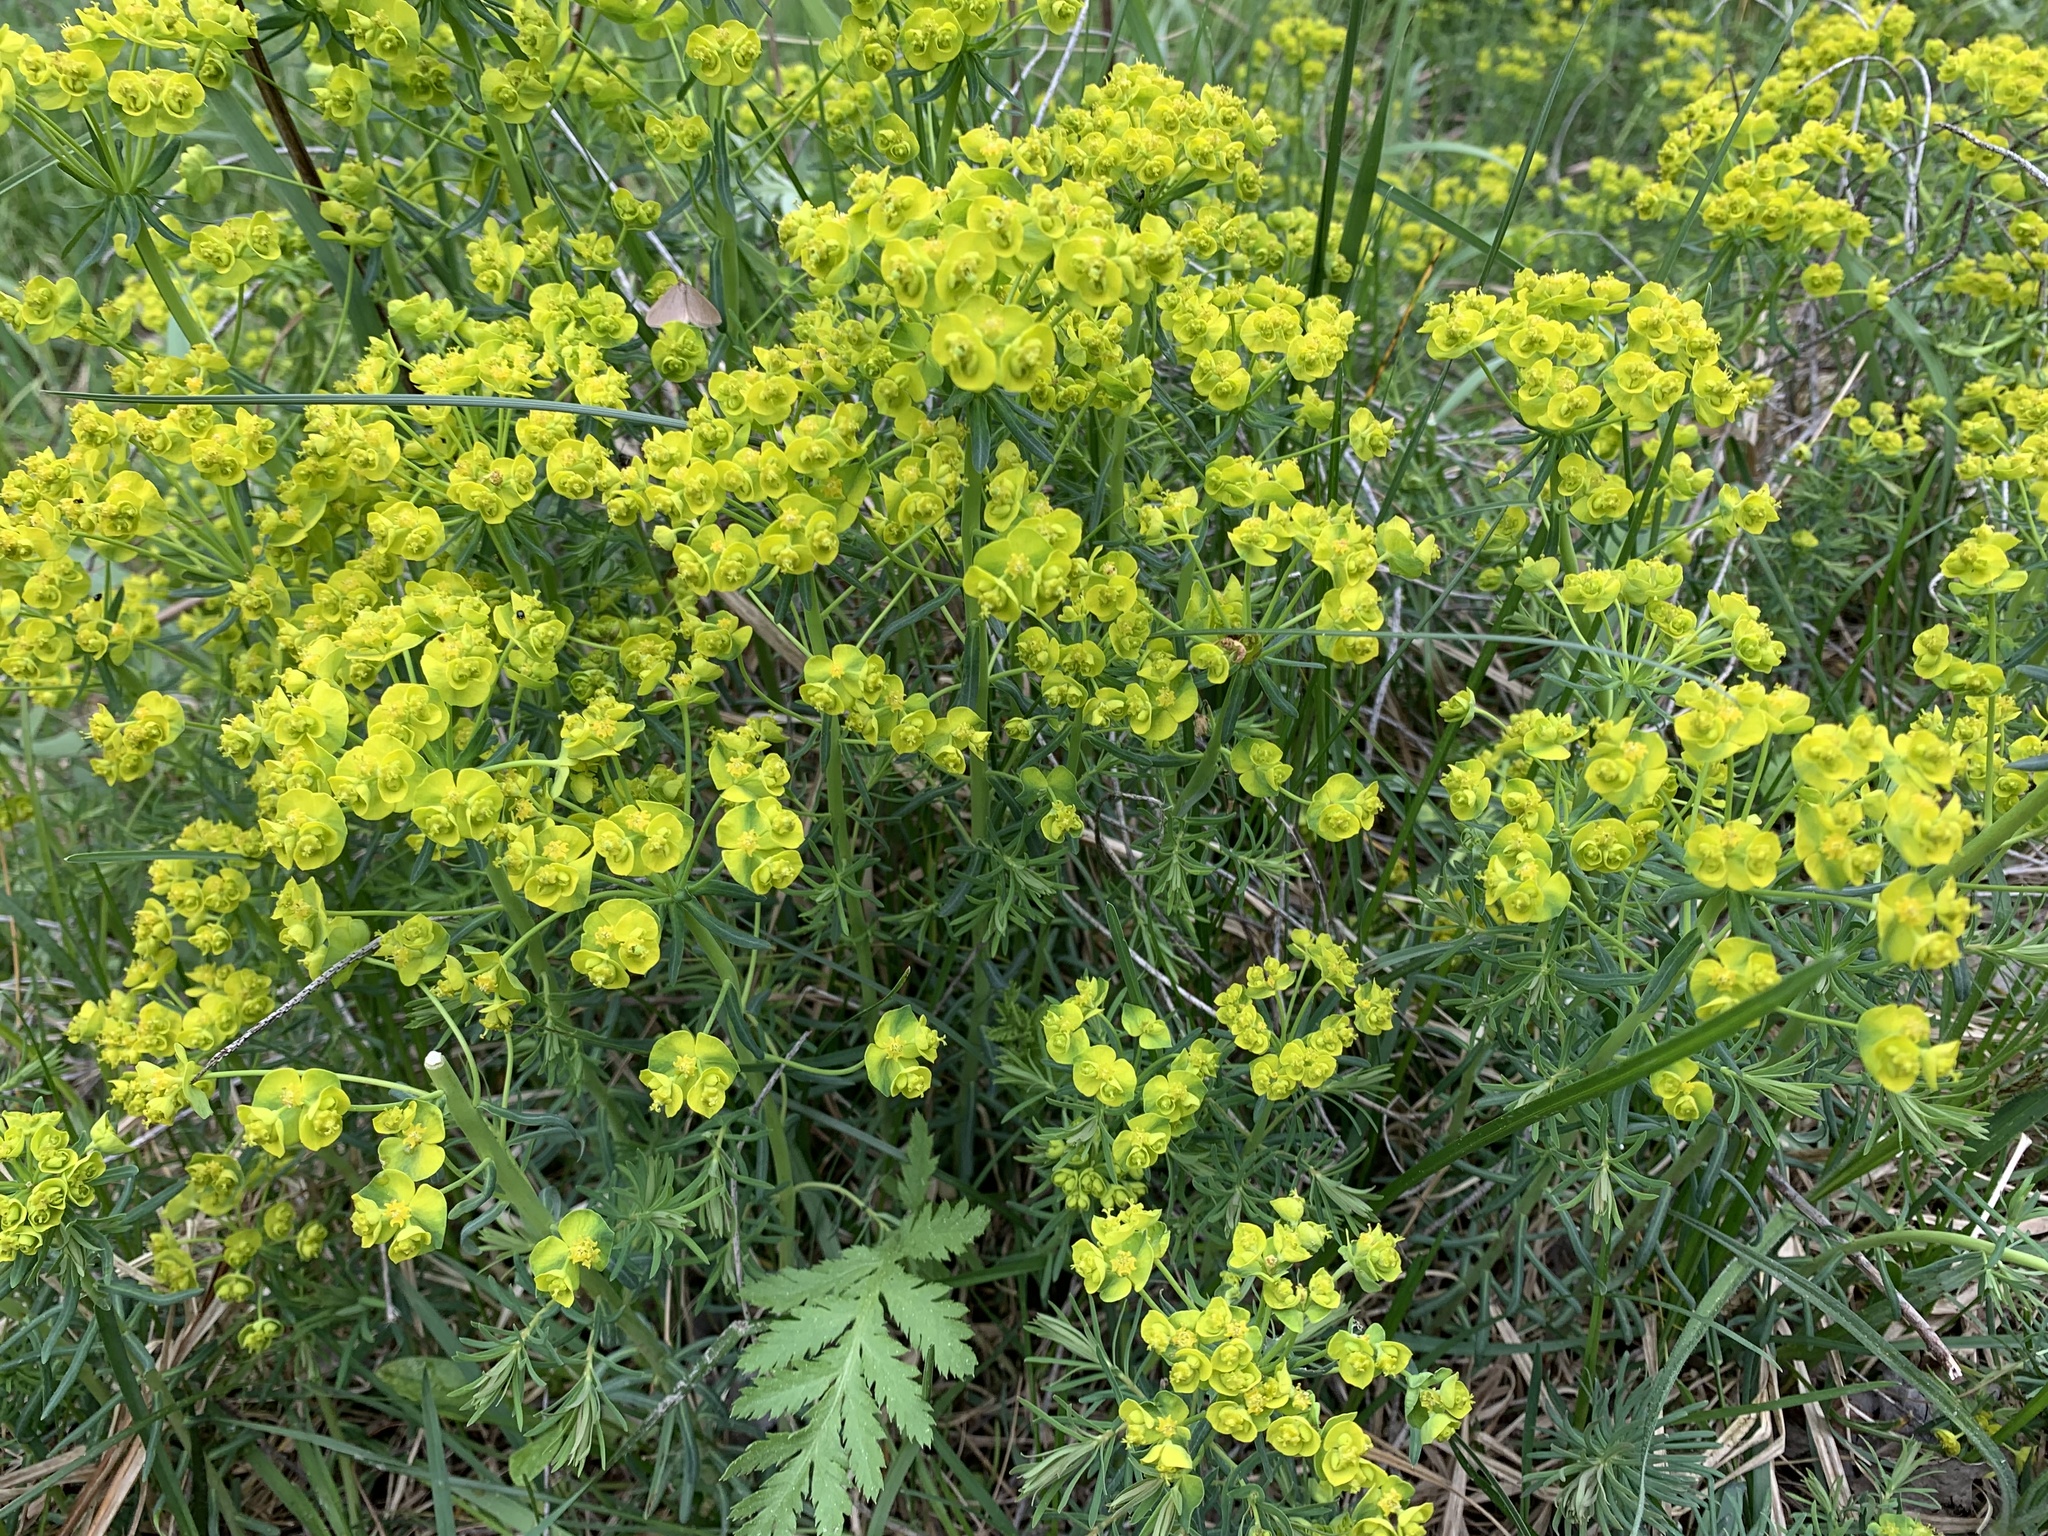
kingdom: Plantae
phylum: Tracheophyta
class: Magnoliopsida
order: Malpighiales
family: Euphorbiaceae
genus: Euphorbia
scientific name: Euphorbia cyparissias
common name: Cypress spurge
